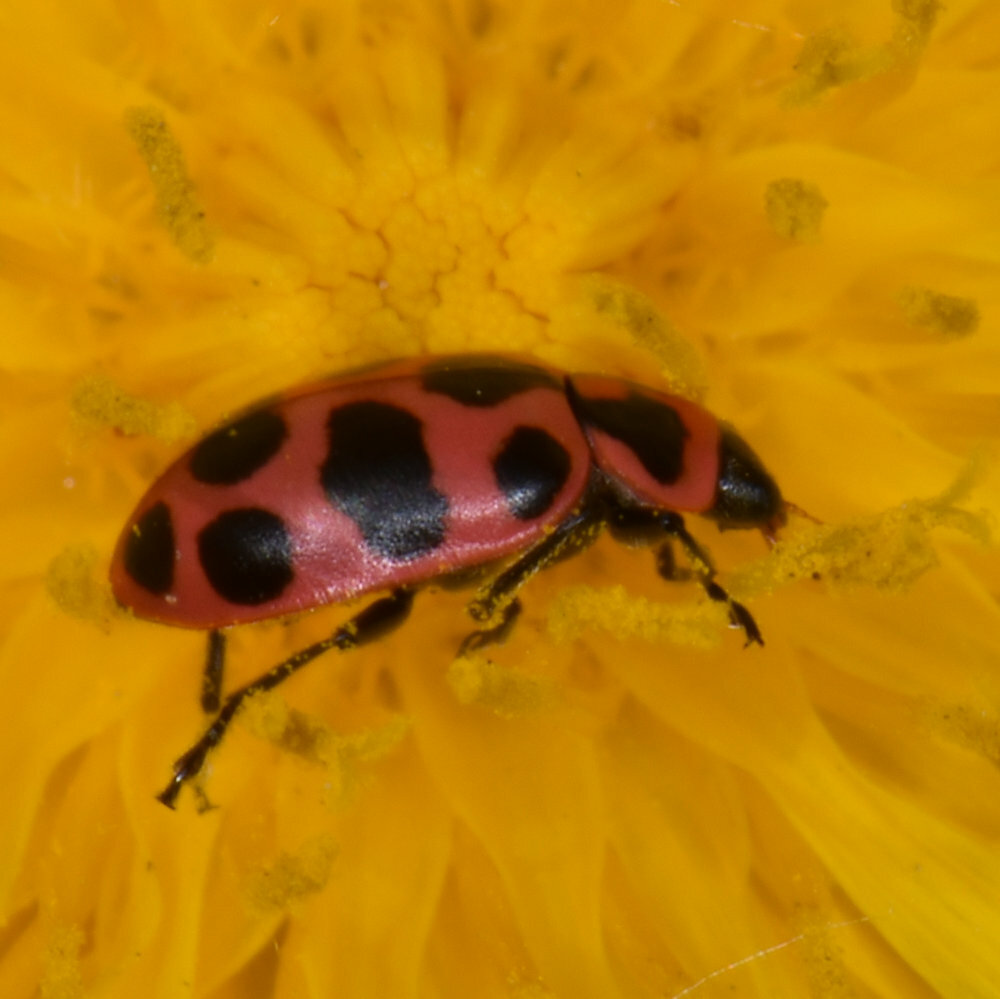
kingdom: Animalia
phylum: Arthropoda
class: Insecta
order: Coleoptera
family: Coccinellidae
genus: Coleomegilla
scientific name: Coleomegilla maculata
